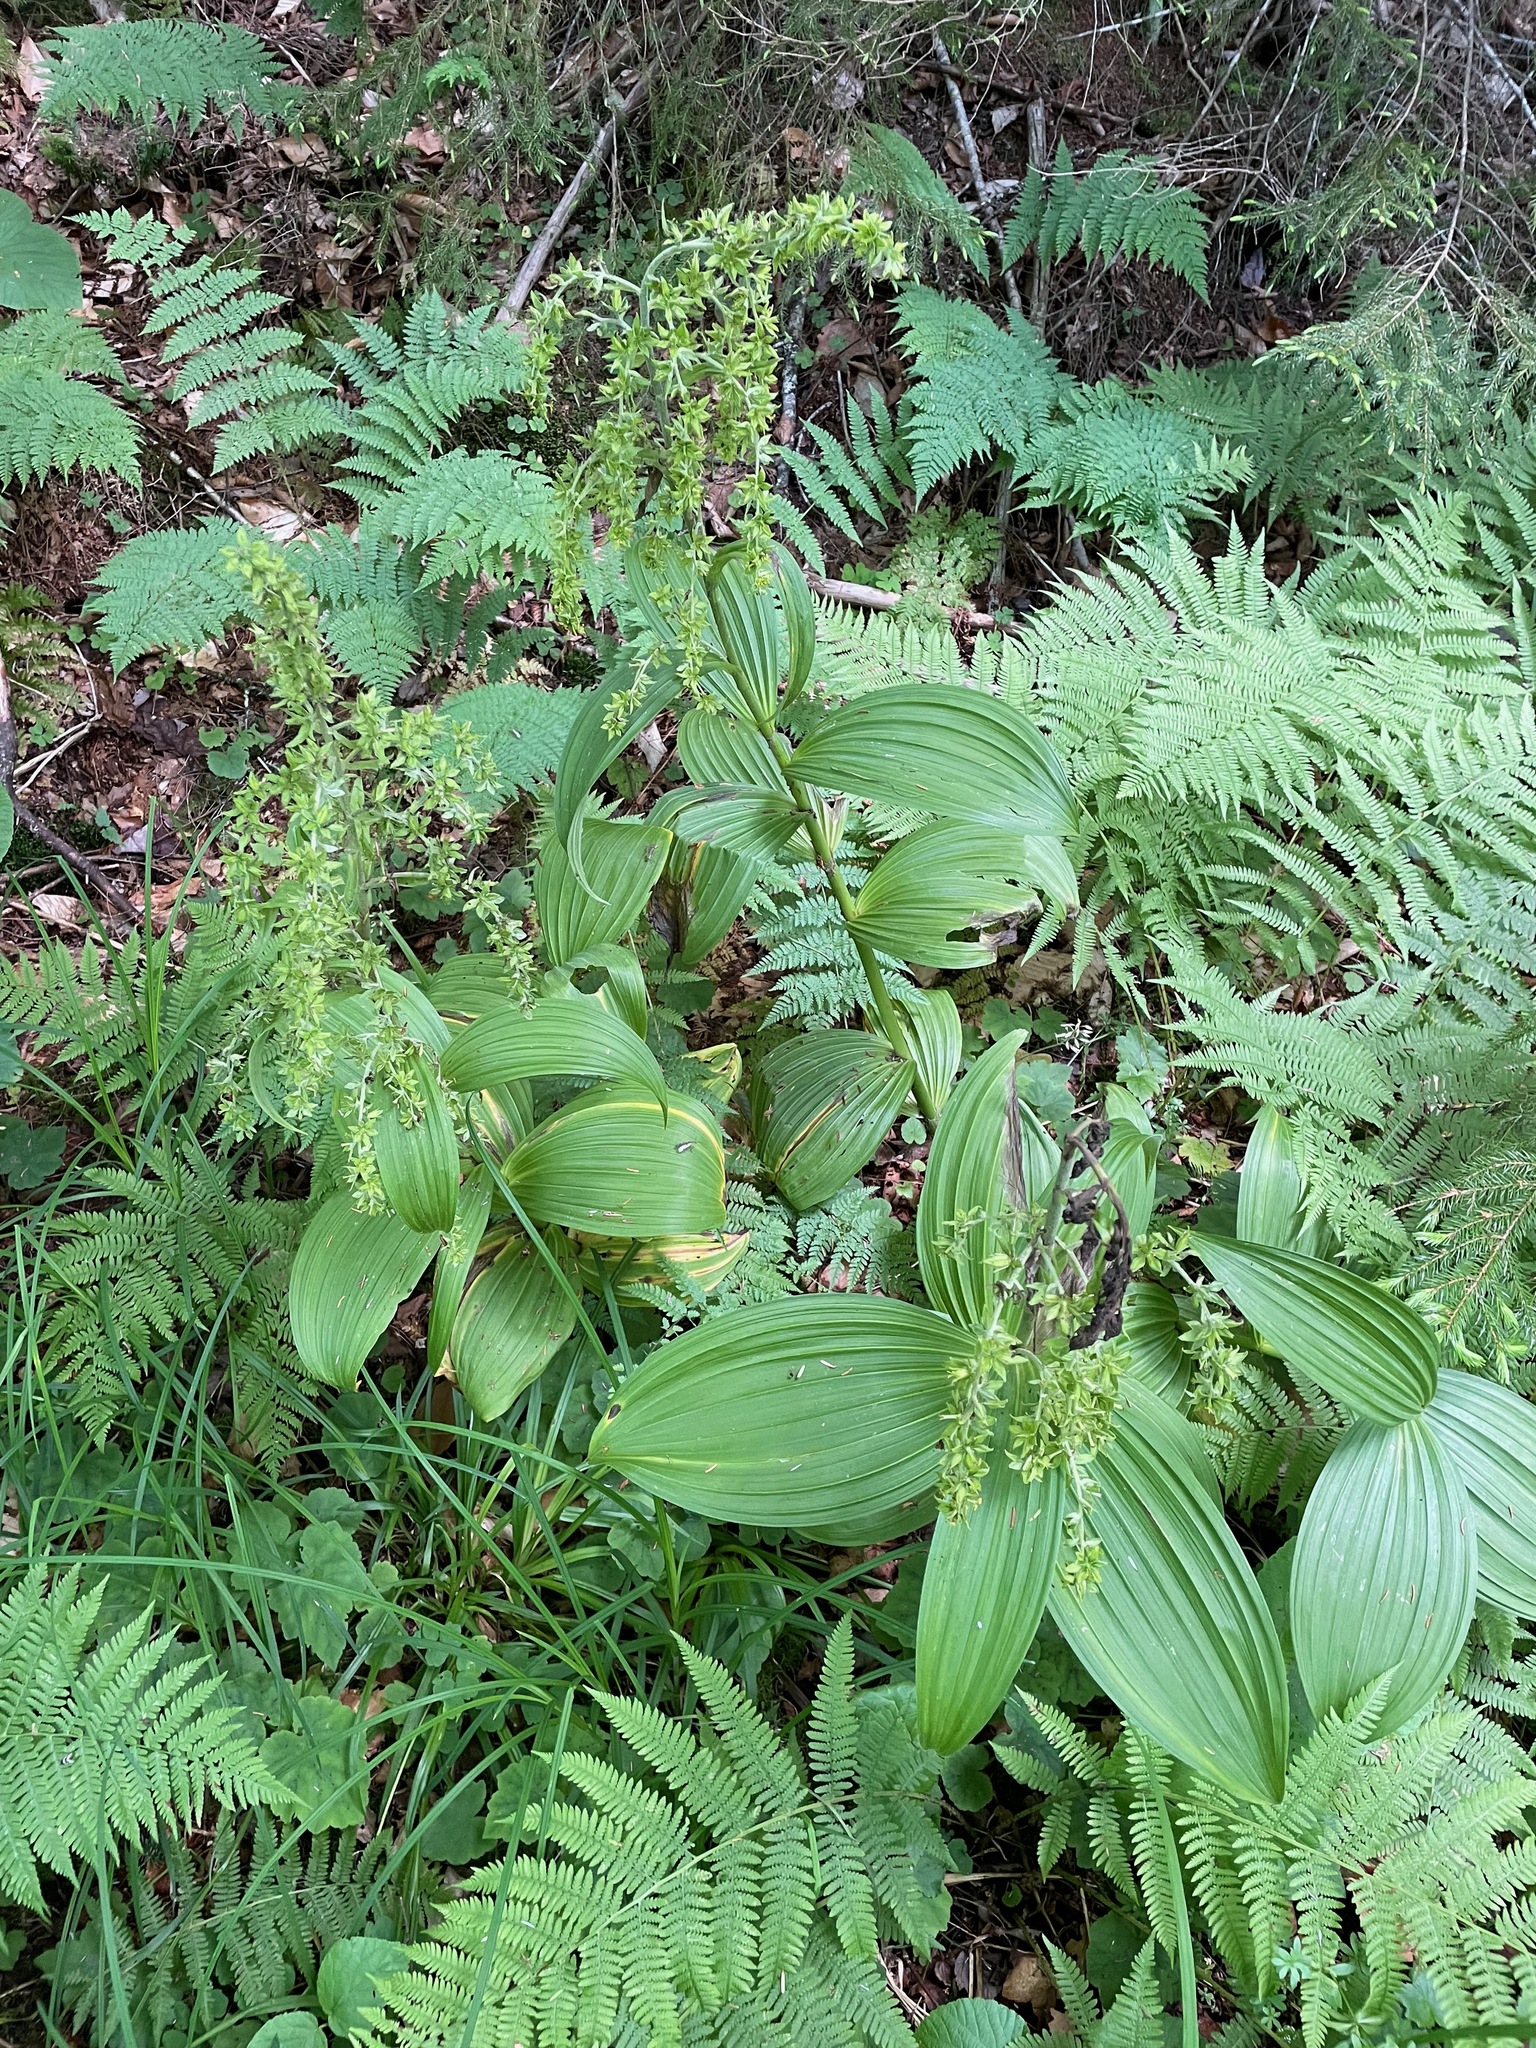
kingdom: Plantae
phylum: Tracheophyta
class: Liliopsida
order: Liliales
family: Melanthiaceae
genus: Veratrum
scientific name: Veratrum viride
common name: American false hellebore
